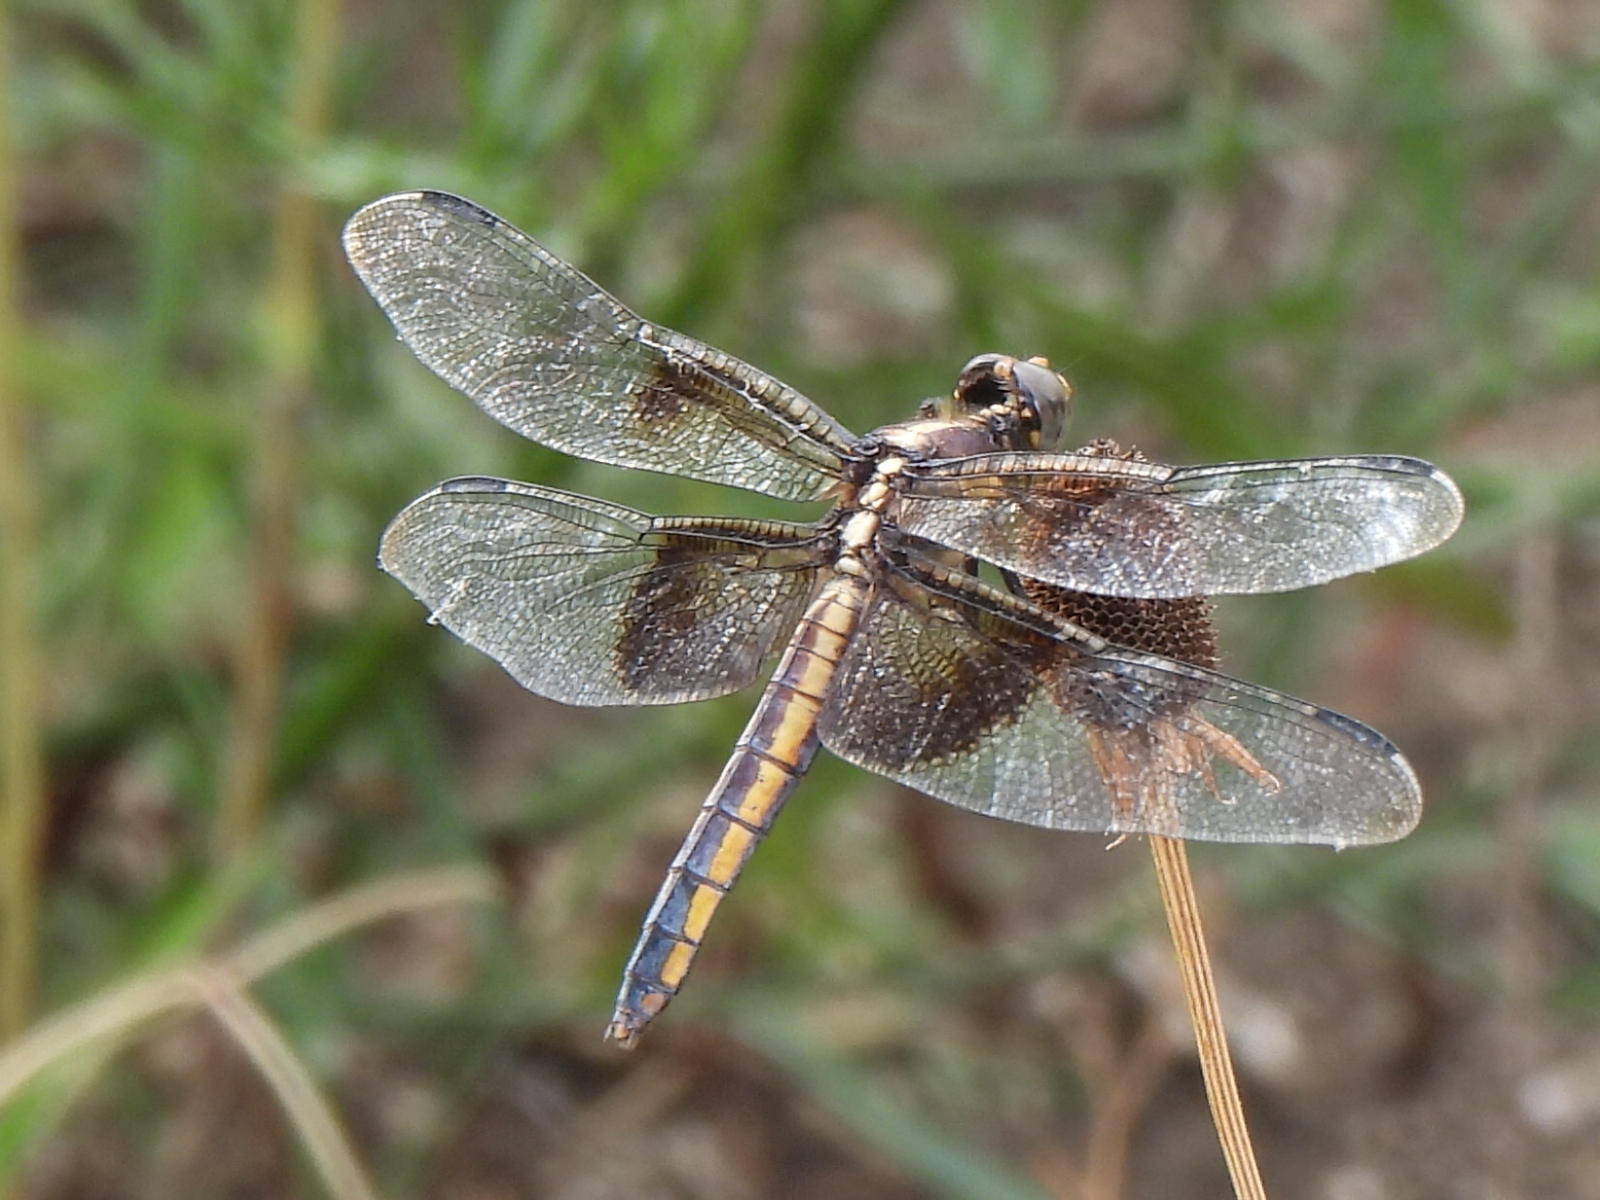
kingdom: Animalia
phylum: Arthropoda
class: Insecta
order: Odonata
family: Libellulidae
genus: Libellula
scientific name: Libellula luctuosa
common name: Widow skimmer
